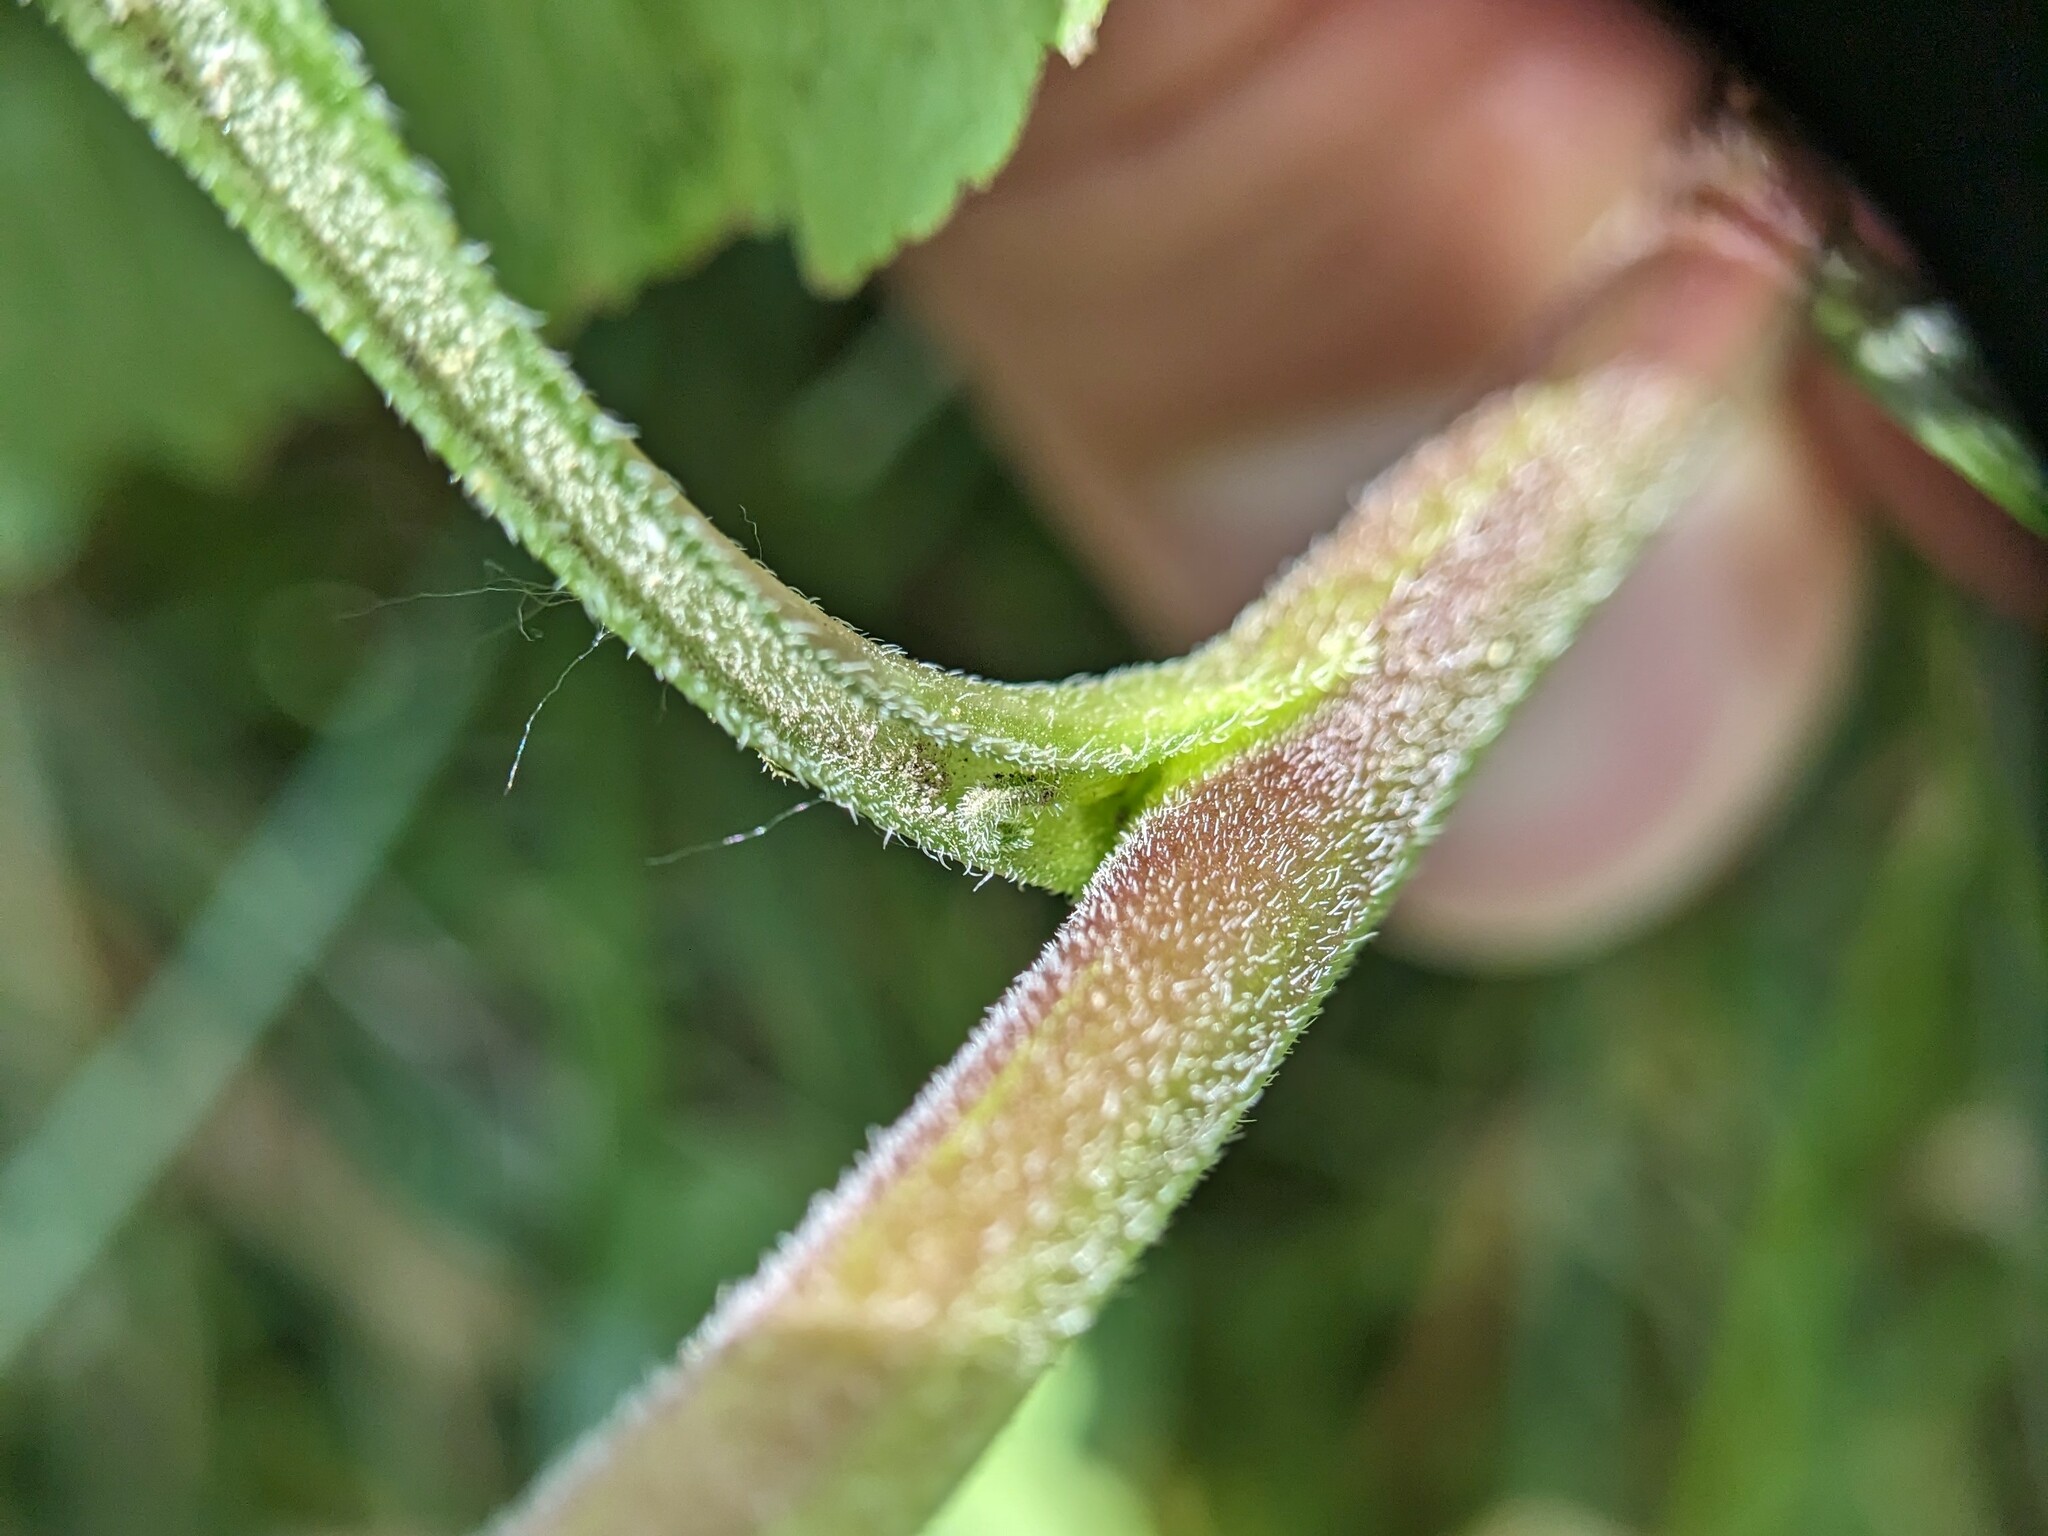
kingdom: Plantae
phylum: Tracheophyta
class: Magnoliopsida
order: Asterales
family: Campanulaceae
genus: Campanula
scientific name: Campanula rapunculoides
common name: Creeping bellflower
